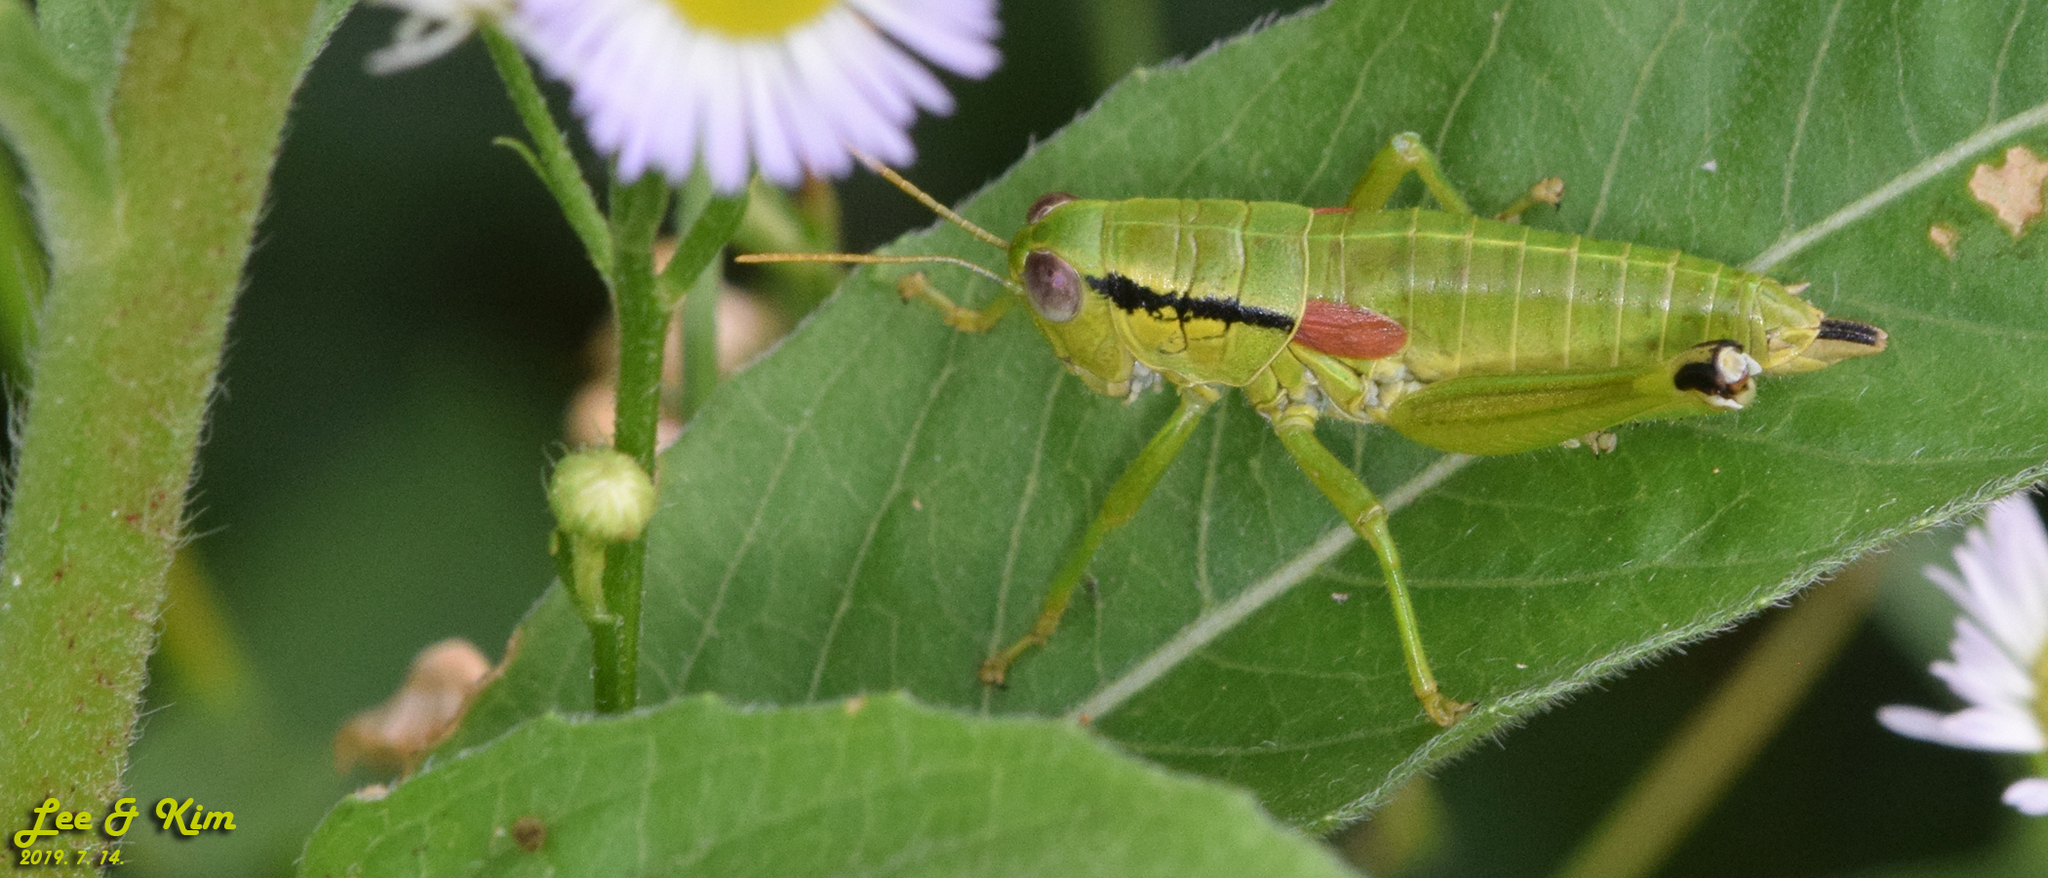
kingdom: Animalia
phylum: Arthropoda
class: Insecta
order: Orthoptera
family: Acrididae
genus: Anapodisma
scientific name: Anapodisma beybienkoi
